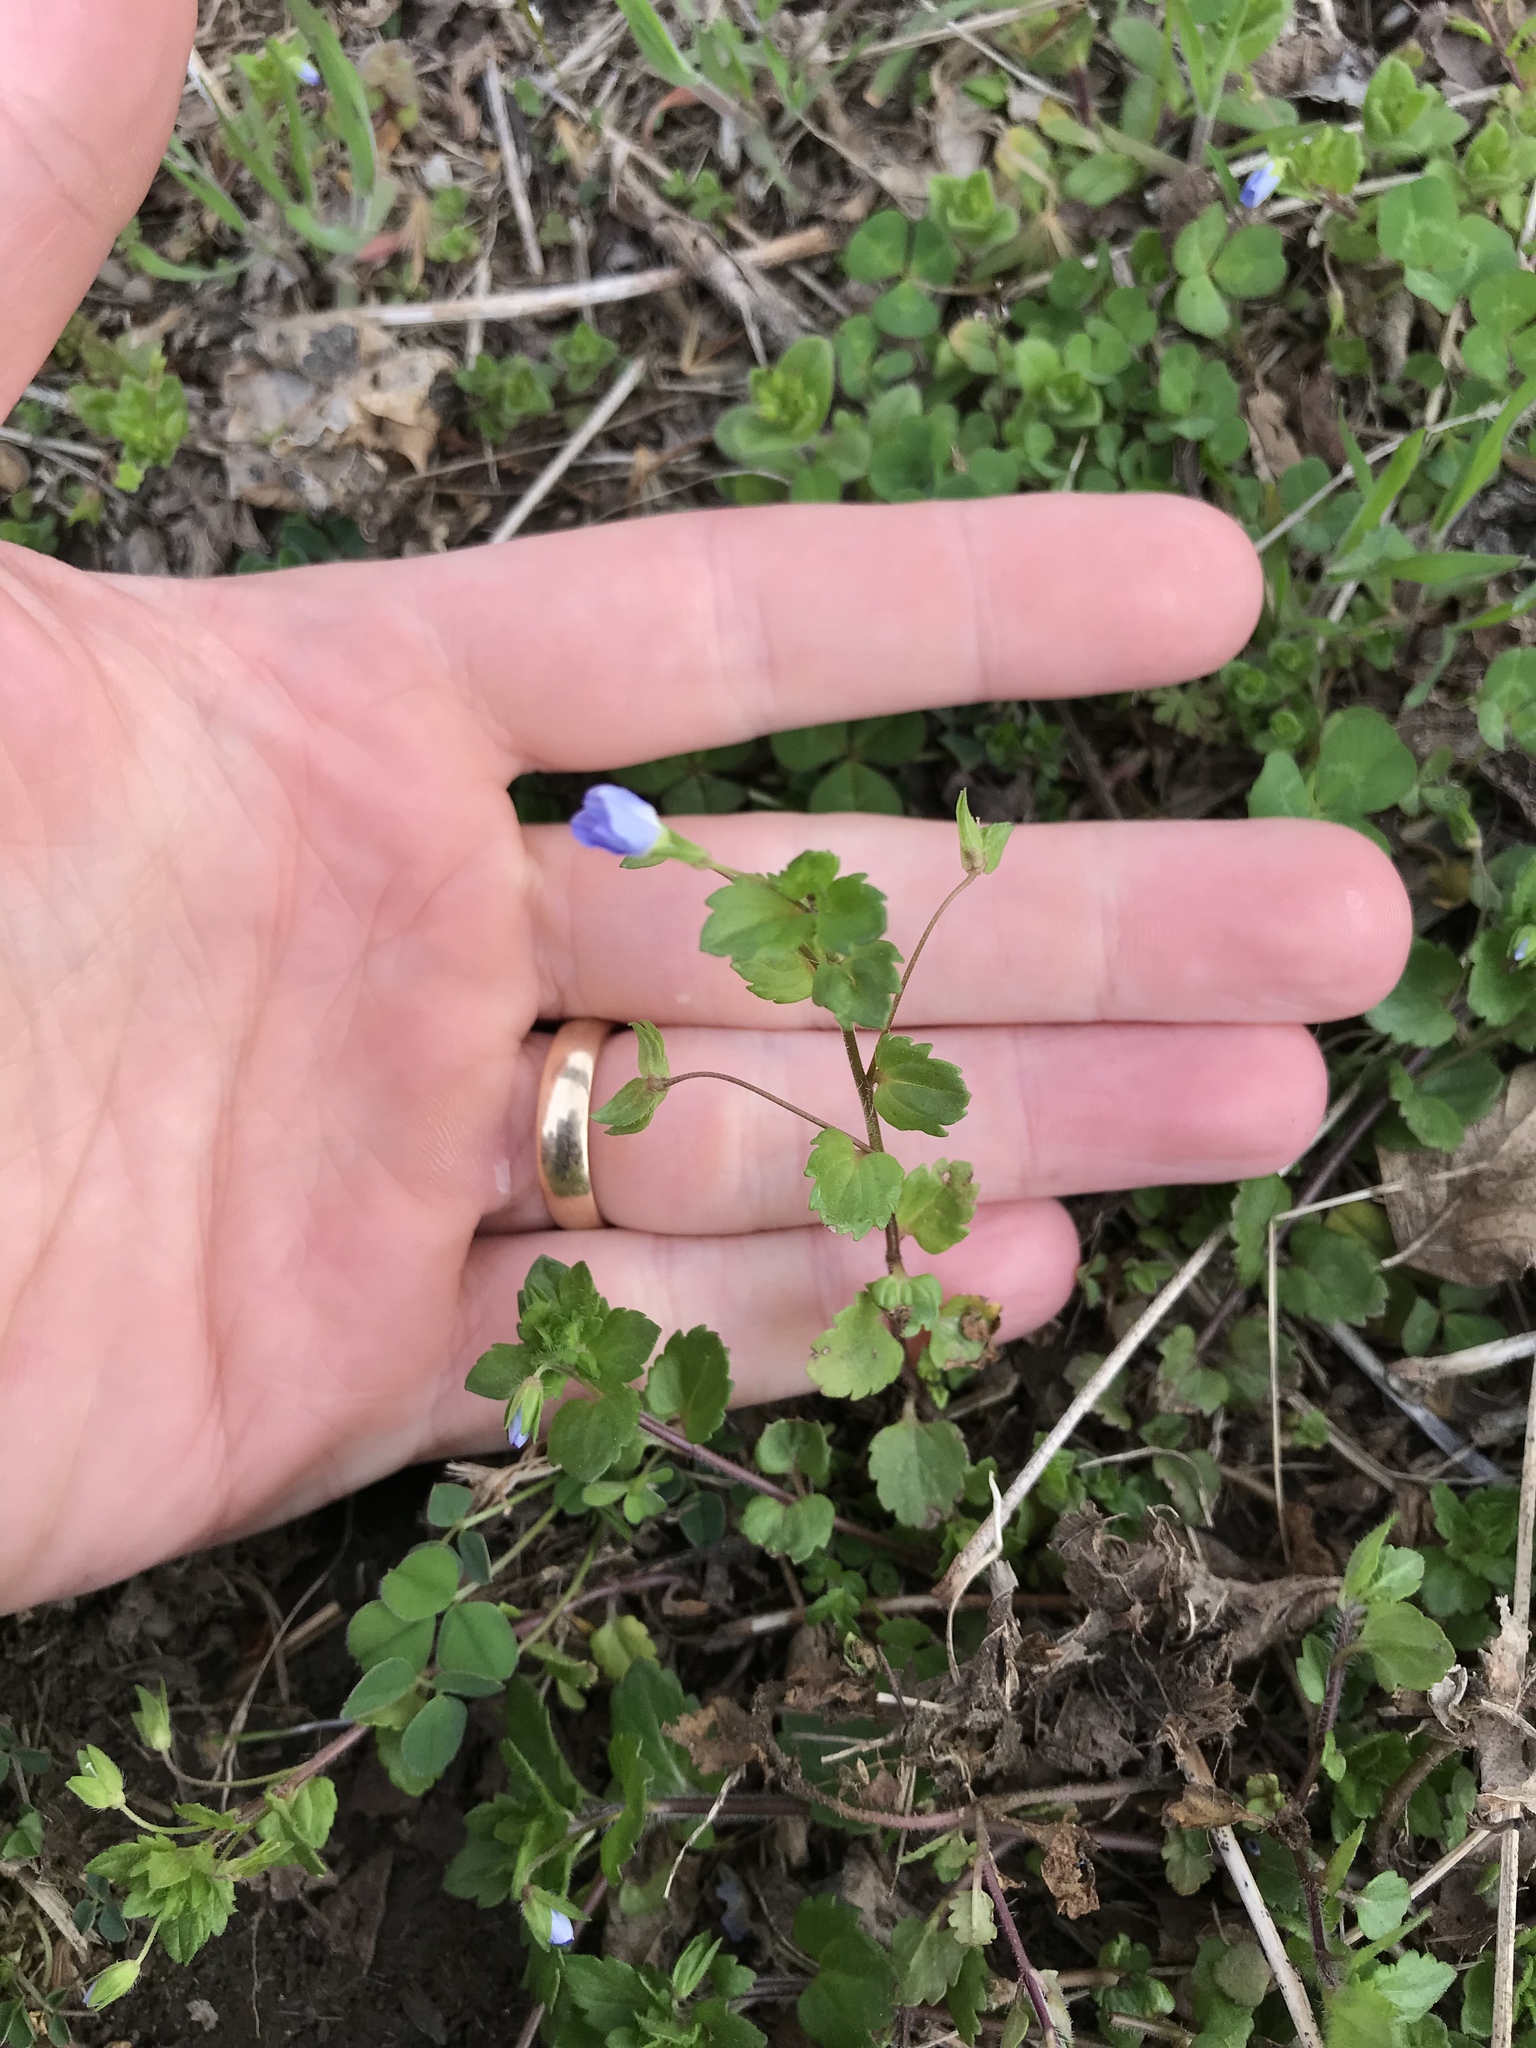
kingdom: Plantae
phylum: Tracheophyta
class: Magnoliopsida
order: Lamiales
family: Plantaginaceae
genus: Veronica
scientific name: Veronica persica
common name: Common field-speedwell
